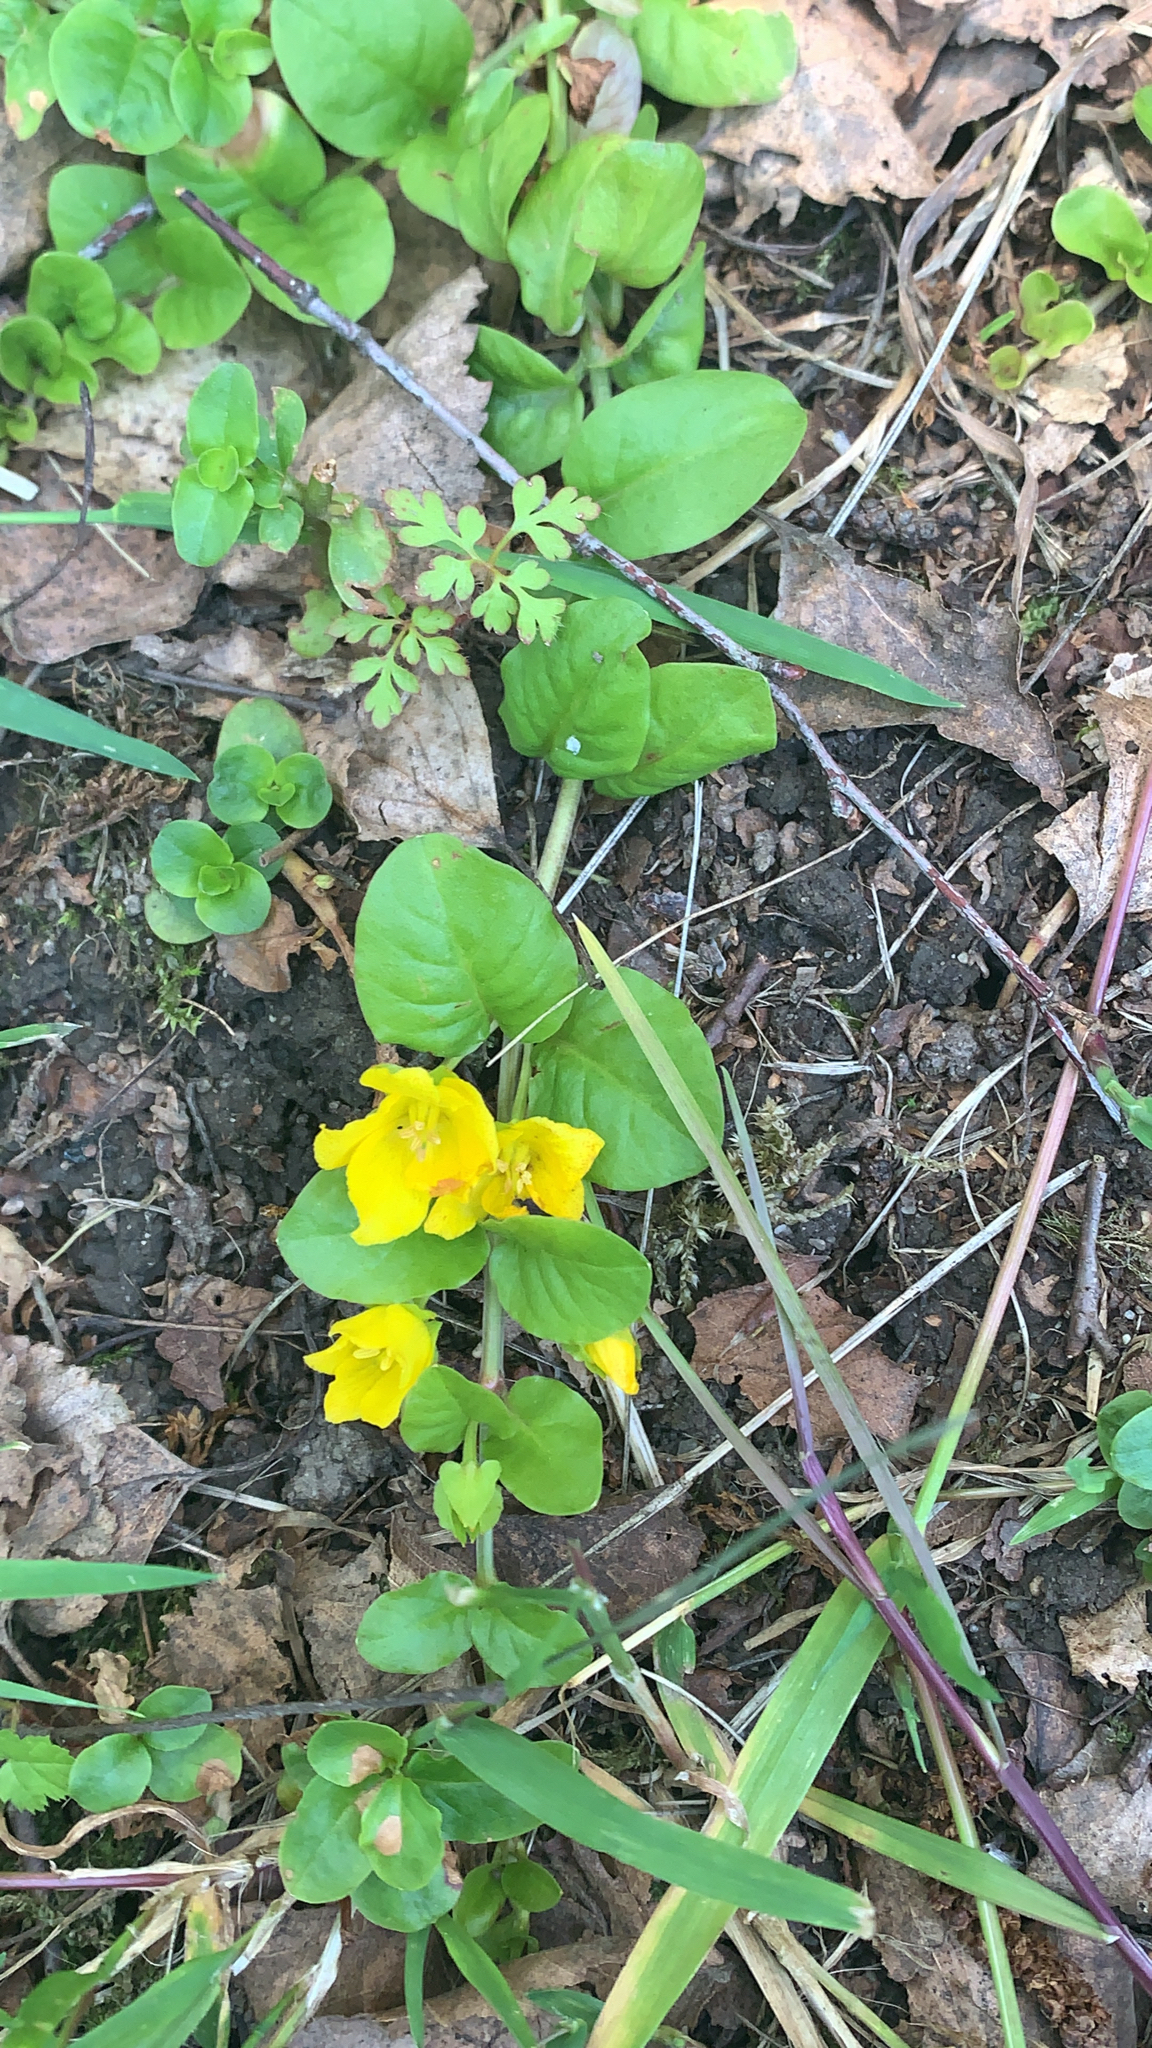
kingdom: Plantae
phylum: Tracheophyta
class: Magnoliopsida
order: Ericales
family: Primulaceae
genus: Lysimachia
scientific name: Lysimachia nummularia
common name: Moneywort
